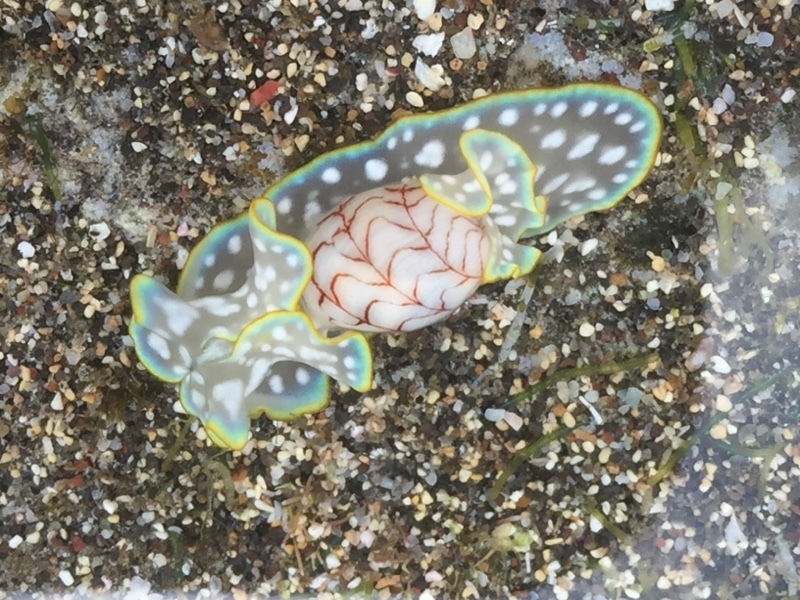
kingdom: Animalia
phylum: Mollusca
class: Gastropoda
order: Cephalaspidea
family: Aplustridae
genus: Micromelo
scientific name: Micromelo undatus
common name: Miniature melo
